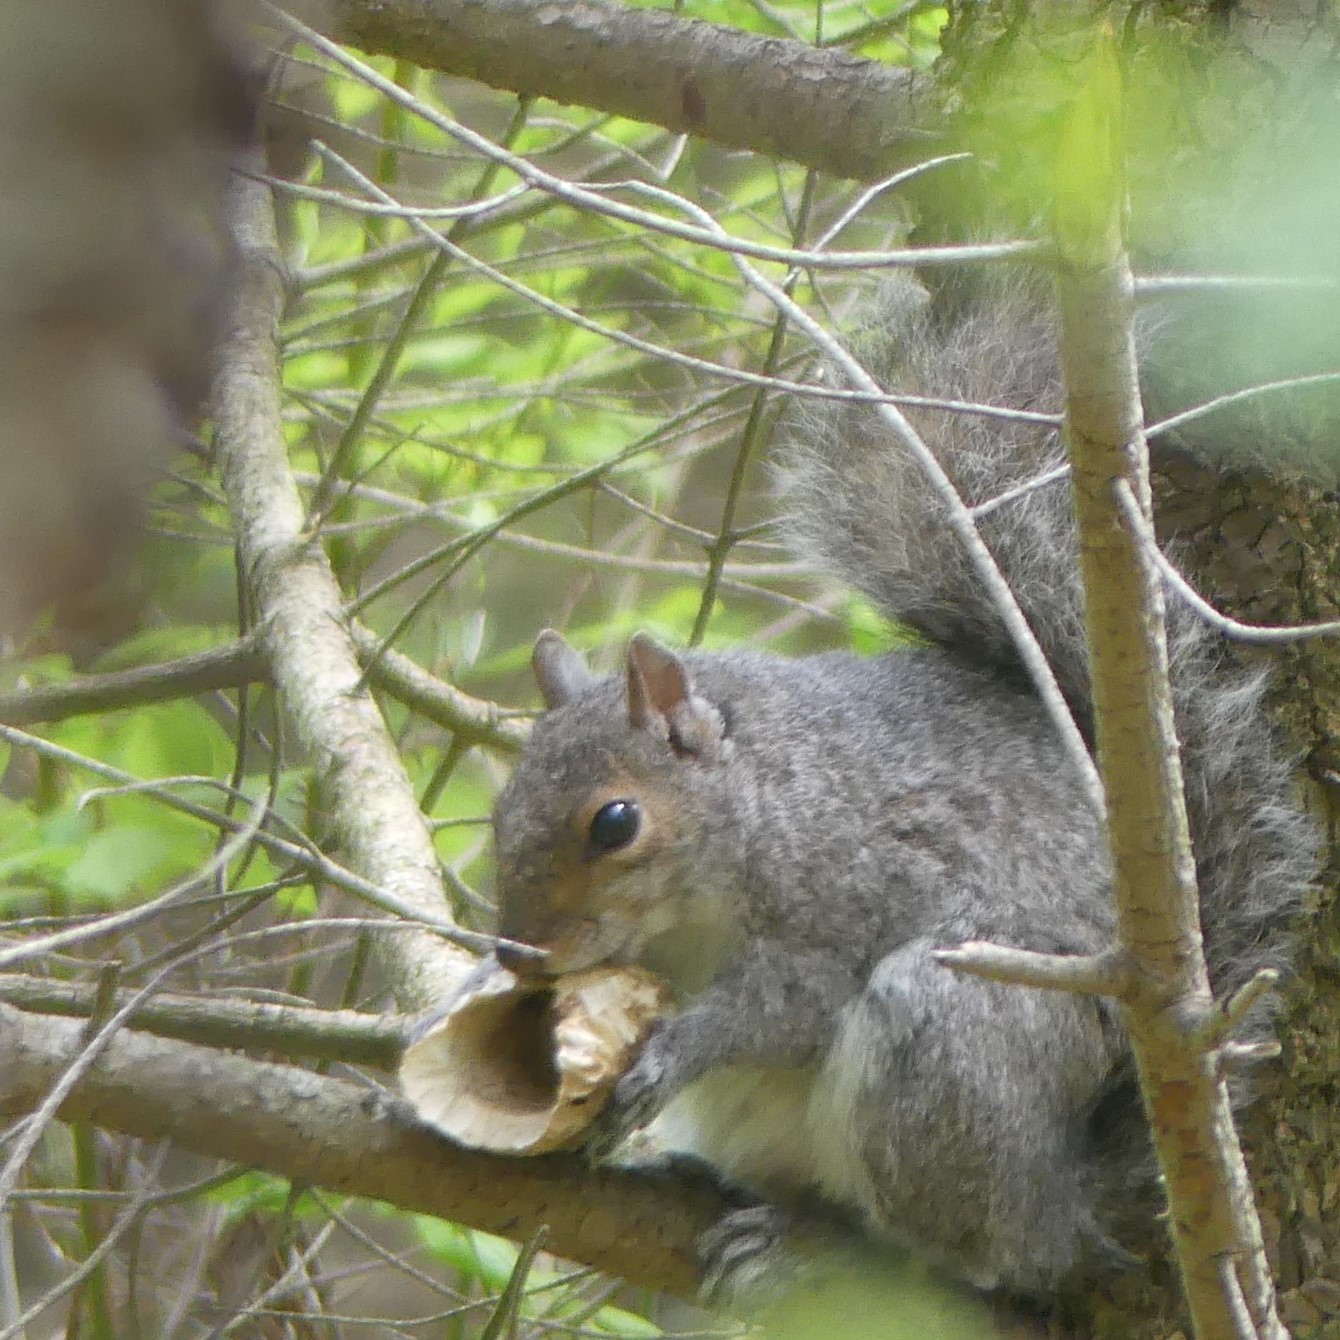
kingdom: Animalia
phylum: Chordata
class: Mammalia
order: Rodentia
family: Sciuridae
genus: Sciurus
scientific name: Sciurus carolinensis
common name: Eastern gray squirrel
